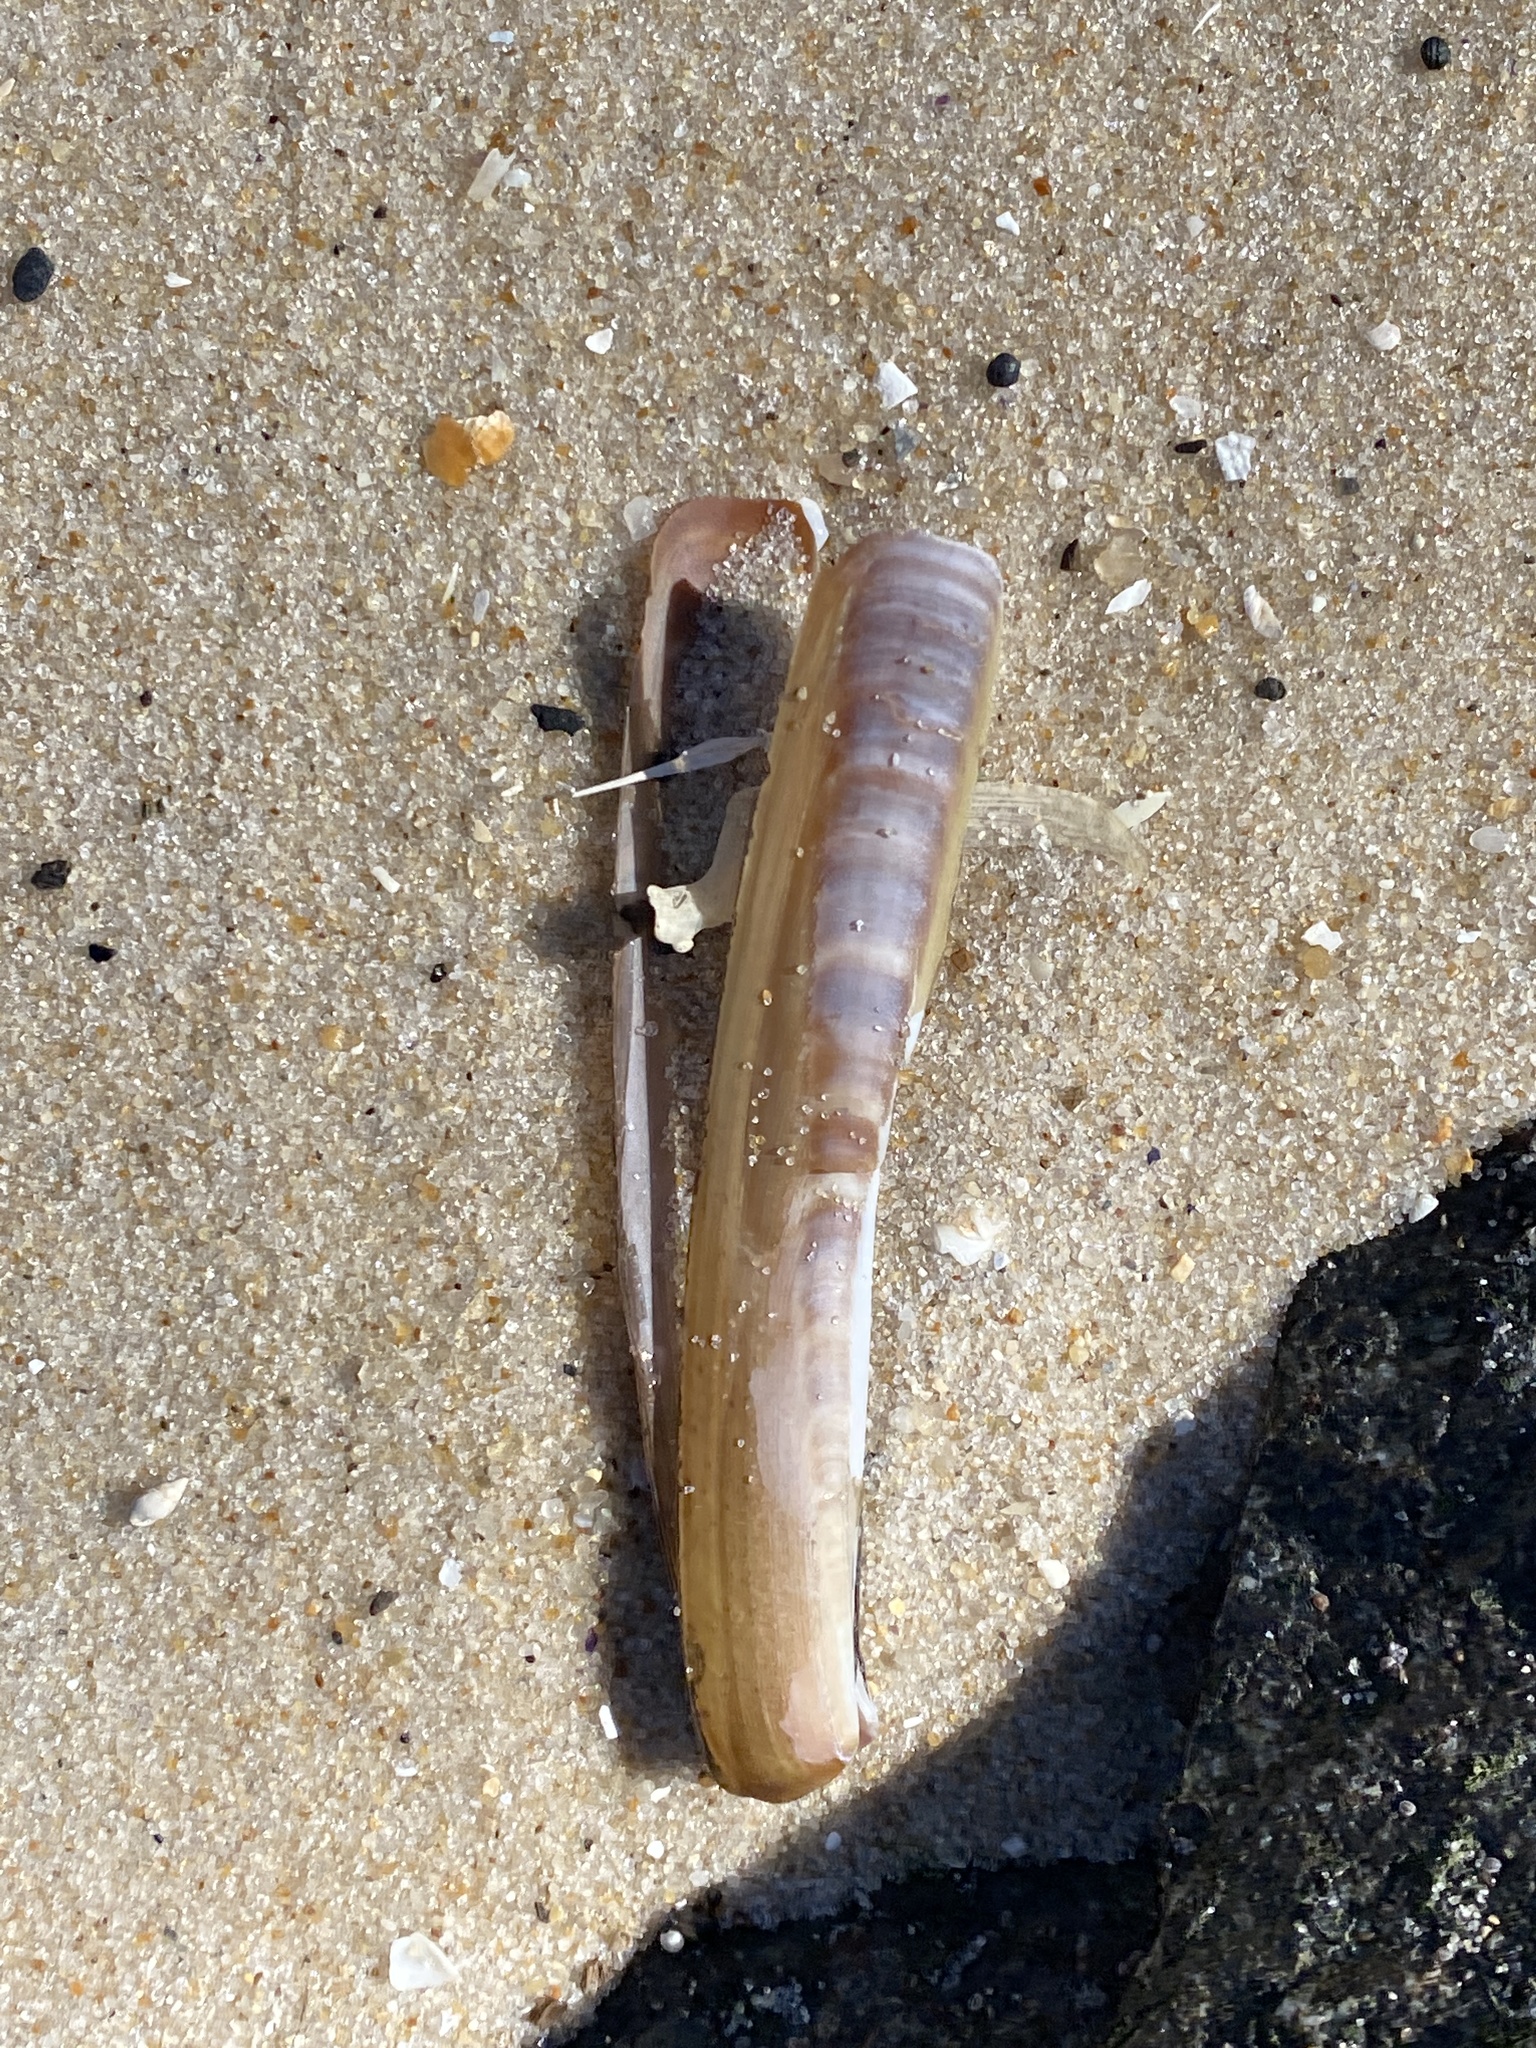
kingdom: Animalia
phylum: Mollusca
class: Bivalvia
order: Adapedonta
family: Pharidae
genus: Ensis
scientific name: Ensis leei
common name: American jack knife clam
